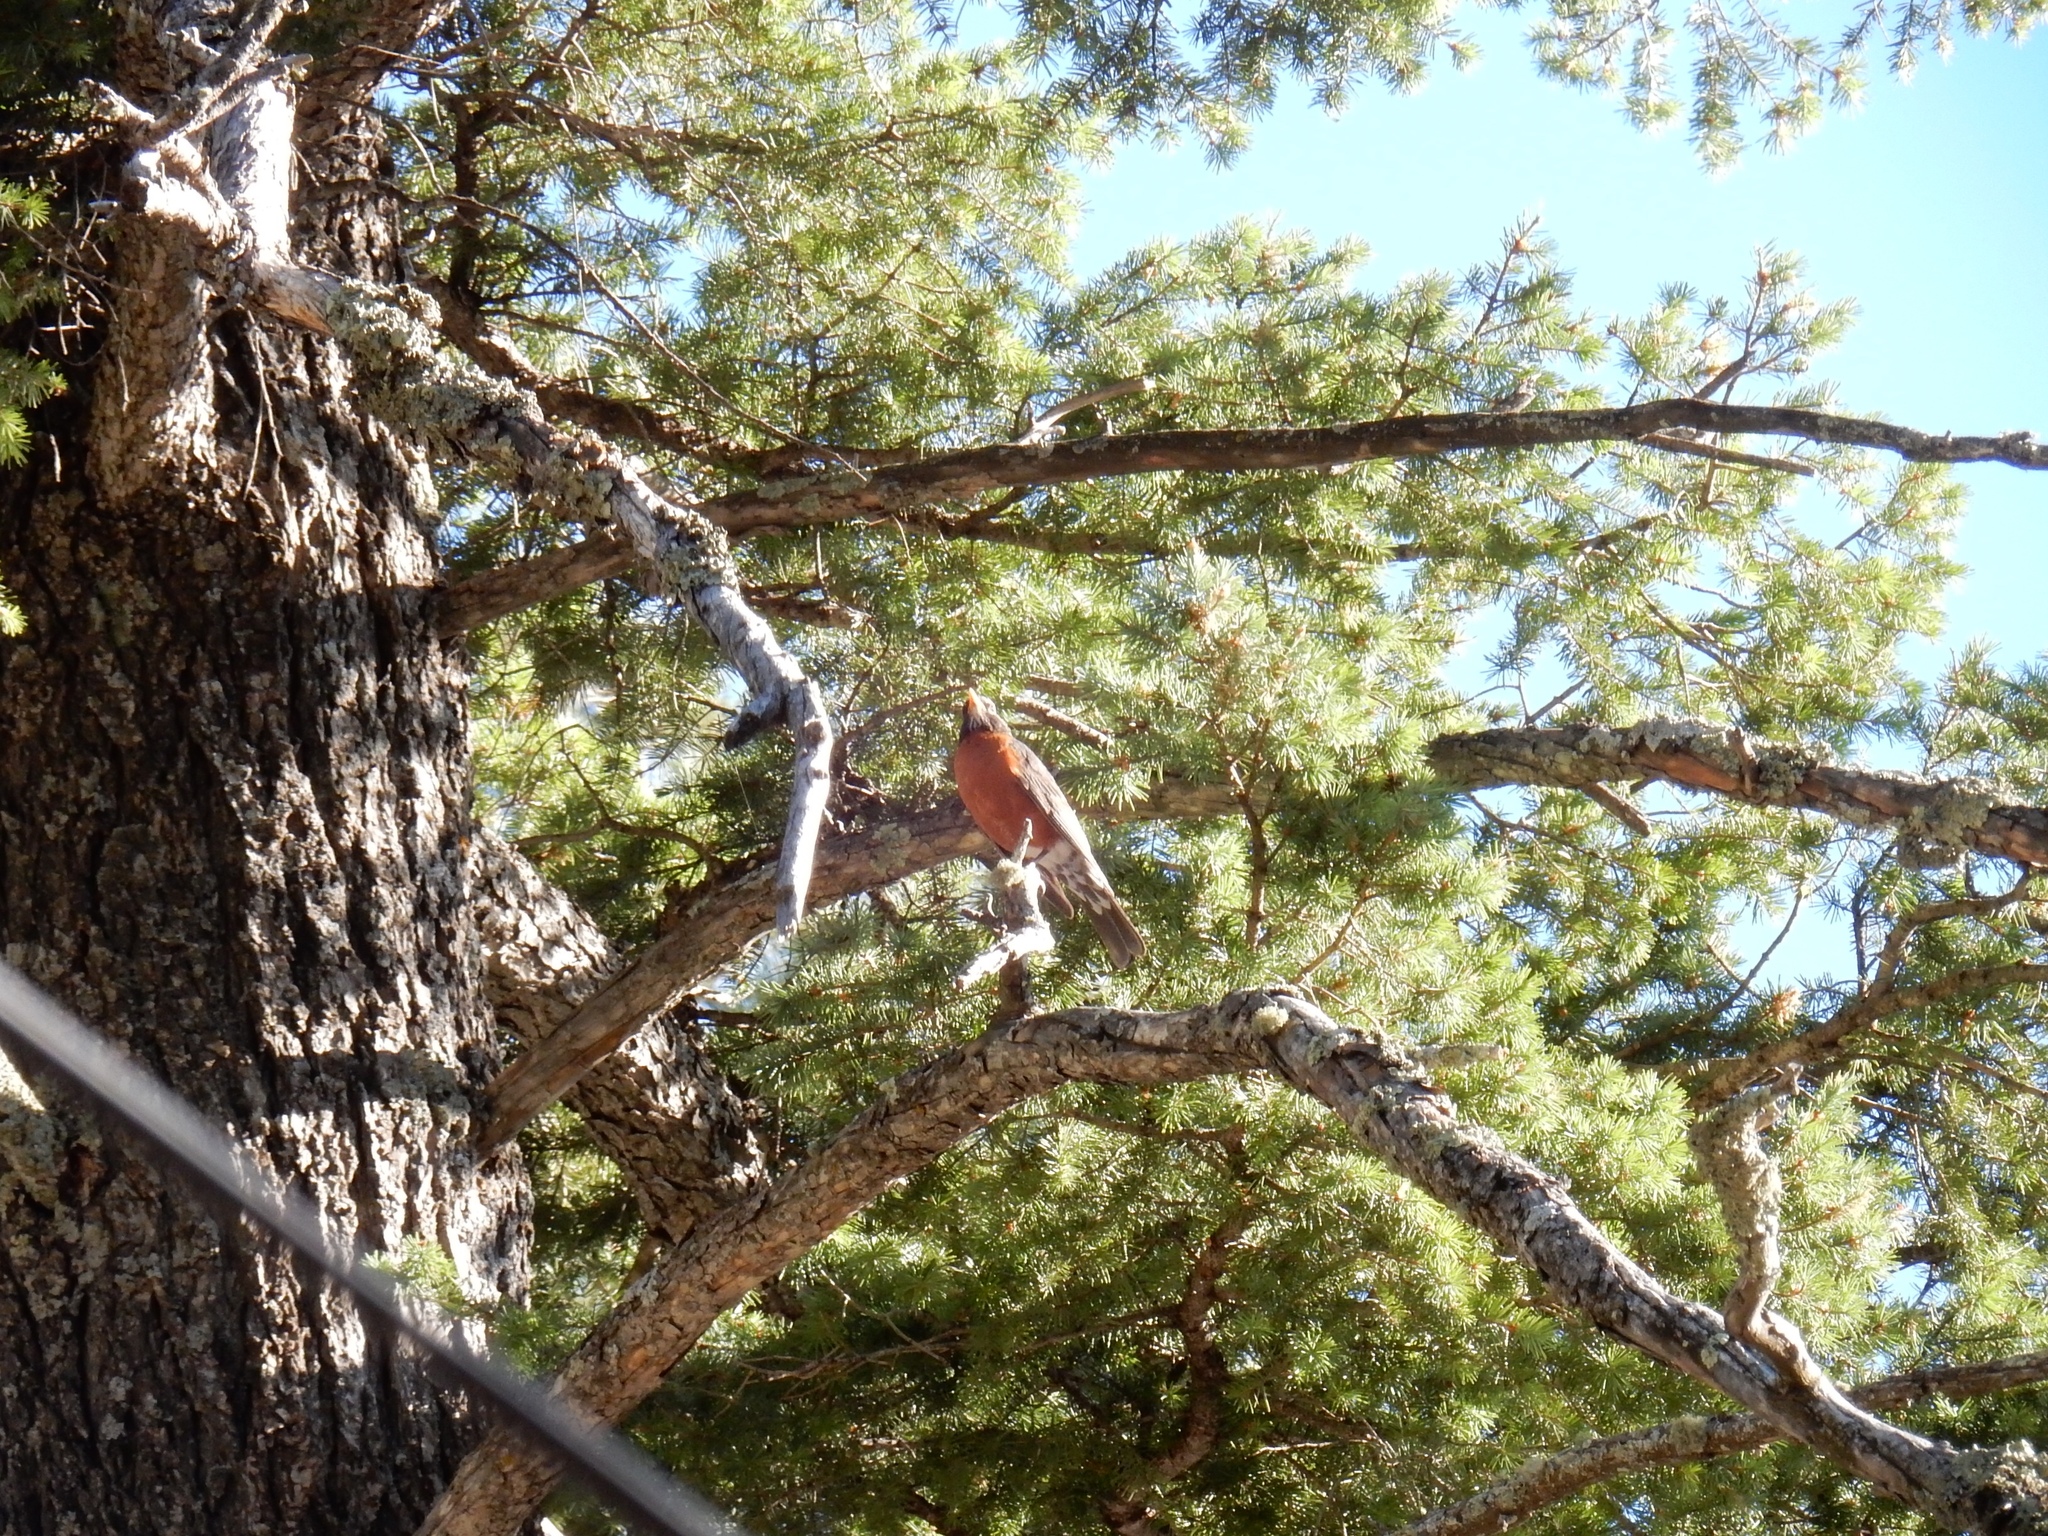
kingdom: Animalia
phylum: Chordata
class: Aves
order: Passeriformes
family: Turdidae
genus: Turdus
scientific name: Turdus migratorius
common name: American robin
